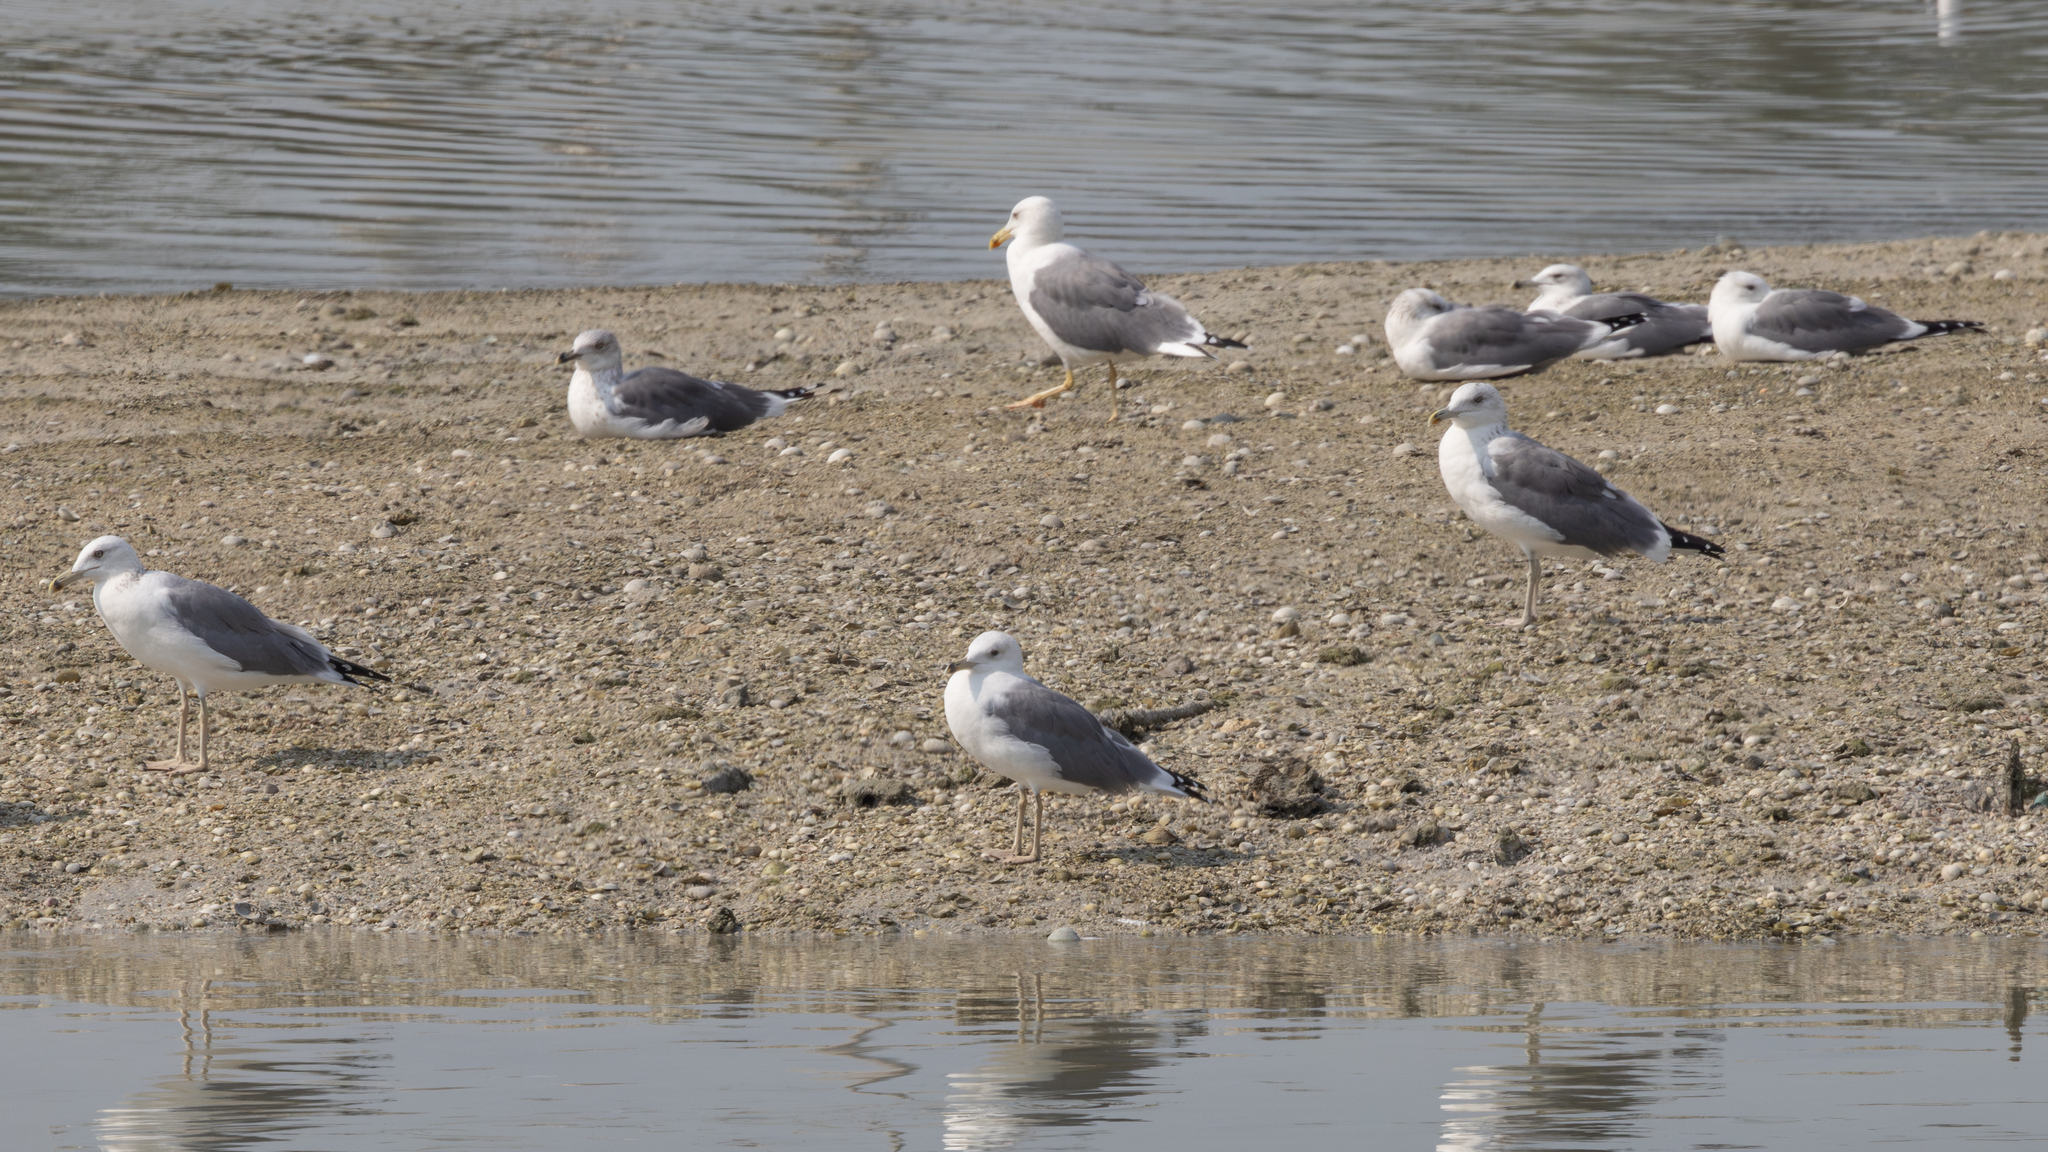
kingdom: Animalia
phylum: Chordata
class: Aves
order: Charadriiformes
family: Laridae
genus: Larus
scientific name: Larus fuscus
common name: Lesser black-backed gull
